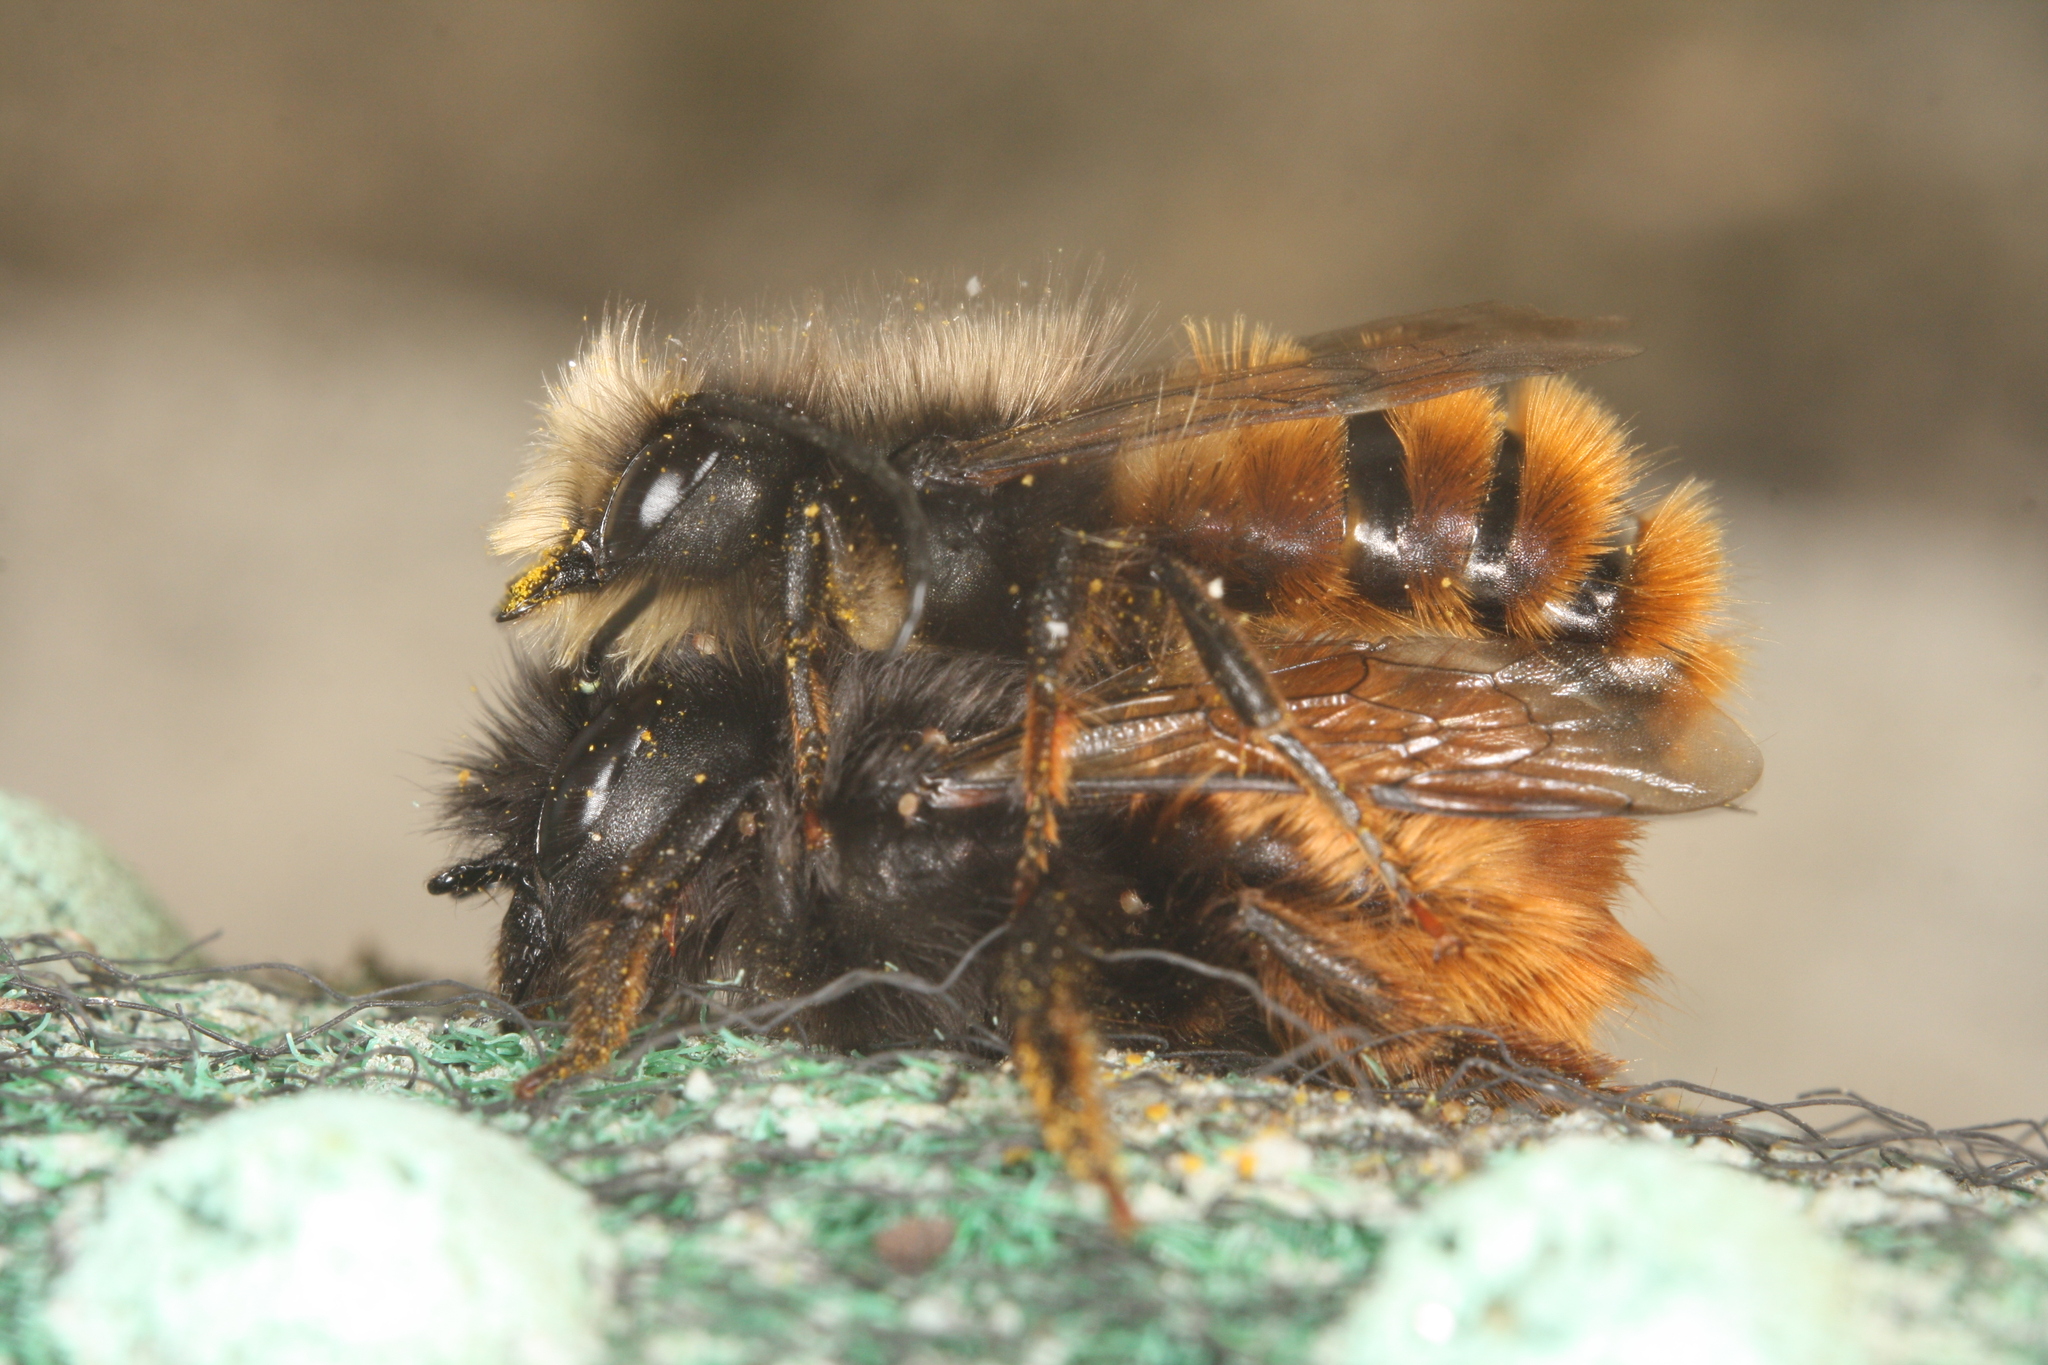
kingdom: Animalia
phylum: Arthropoda
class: Insecta
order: Hymenoptera
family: Megachilidae
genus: Osmia
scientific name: Osmia cornuta
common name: Mason bee
